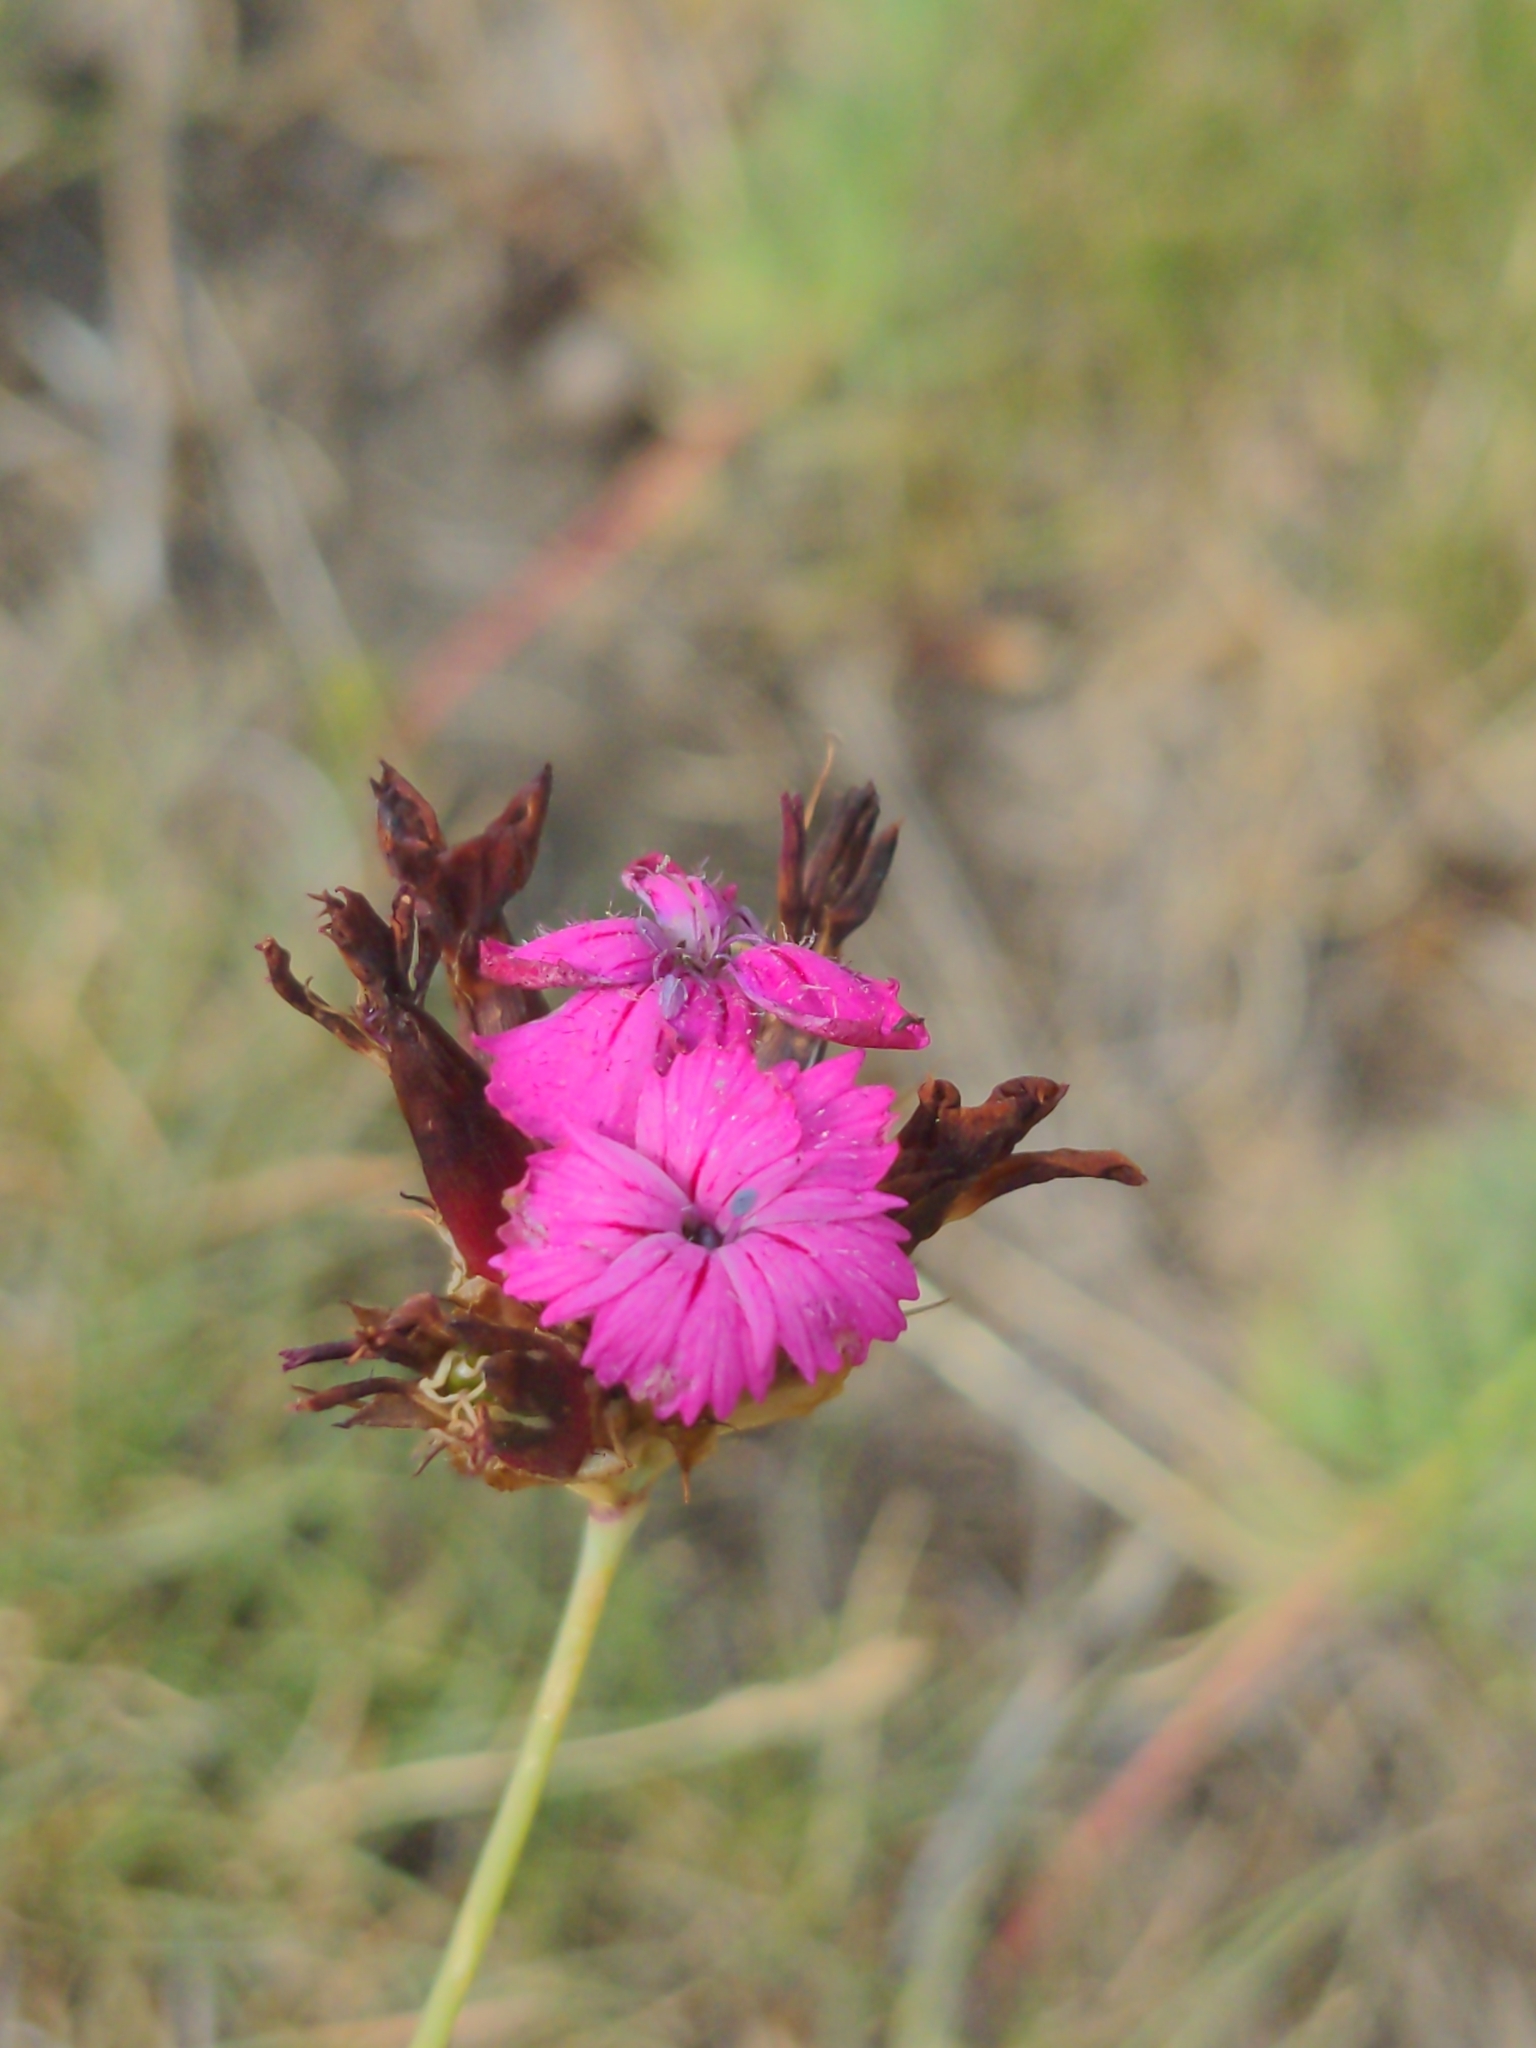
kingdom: Plantae
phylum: Tracheophyta
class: Magnoliopsida
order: Caryophyllales
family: Caryophyllaceae
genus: Dianthus
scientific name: Dianthus carthusianorum
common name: Carthusian pink
